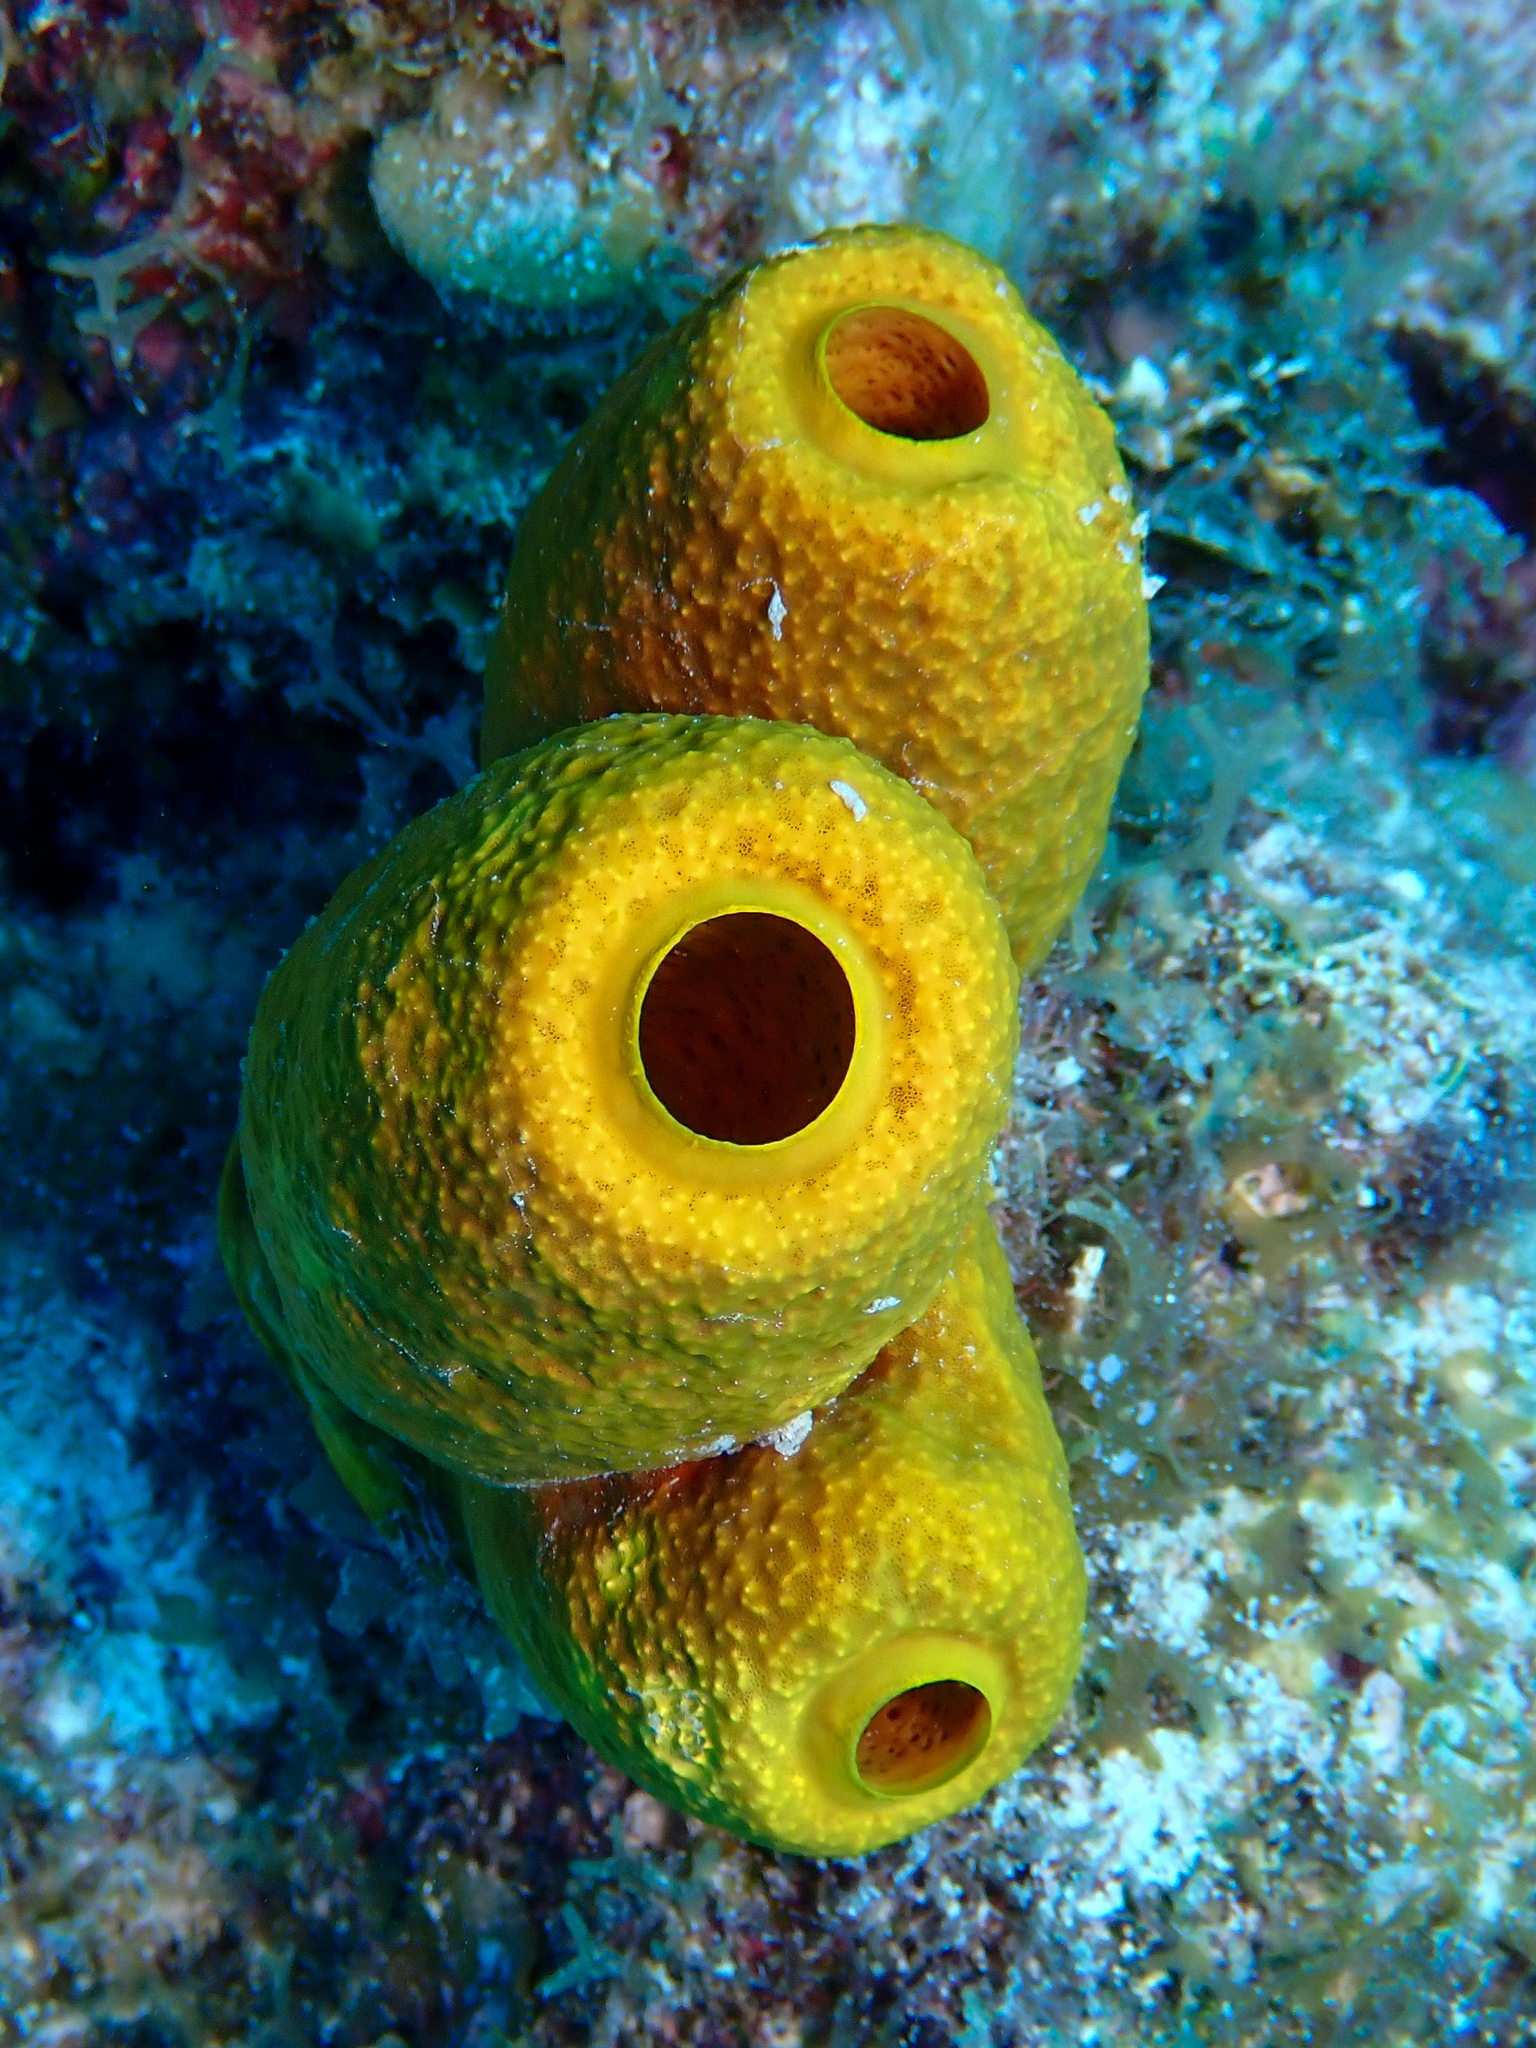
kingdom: Animalia
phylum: Porifera
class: Demospongiae
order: Verongiida
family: Aplysinidae
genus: Aplysina
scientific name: Aplysina fistularis
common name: Candle sponge
